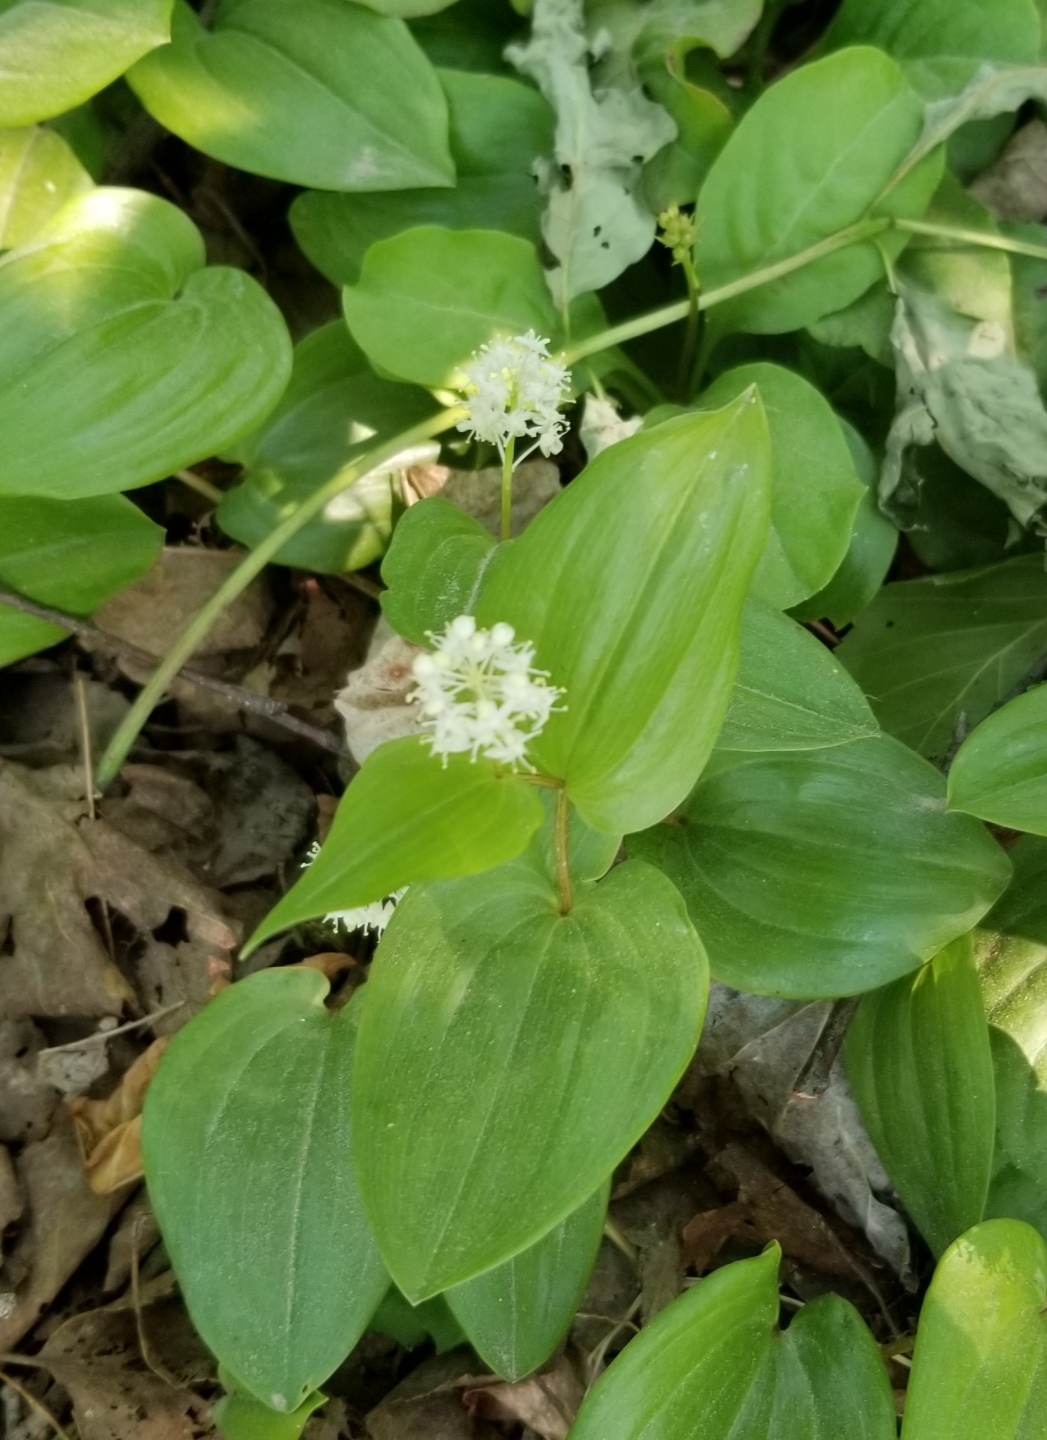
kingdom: Plantae
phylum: Tracheophyta
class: Liliopsida
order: Asparagales
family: Asparagaceae
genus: Maianthemum
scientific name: Maianthemum canadense
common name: False lily-of-the-valley
